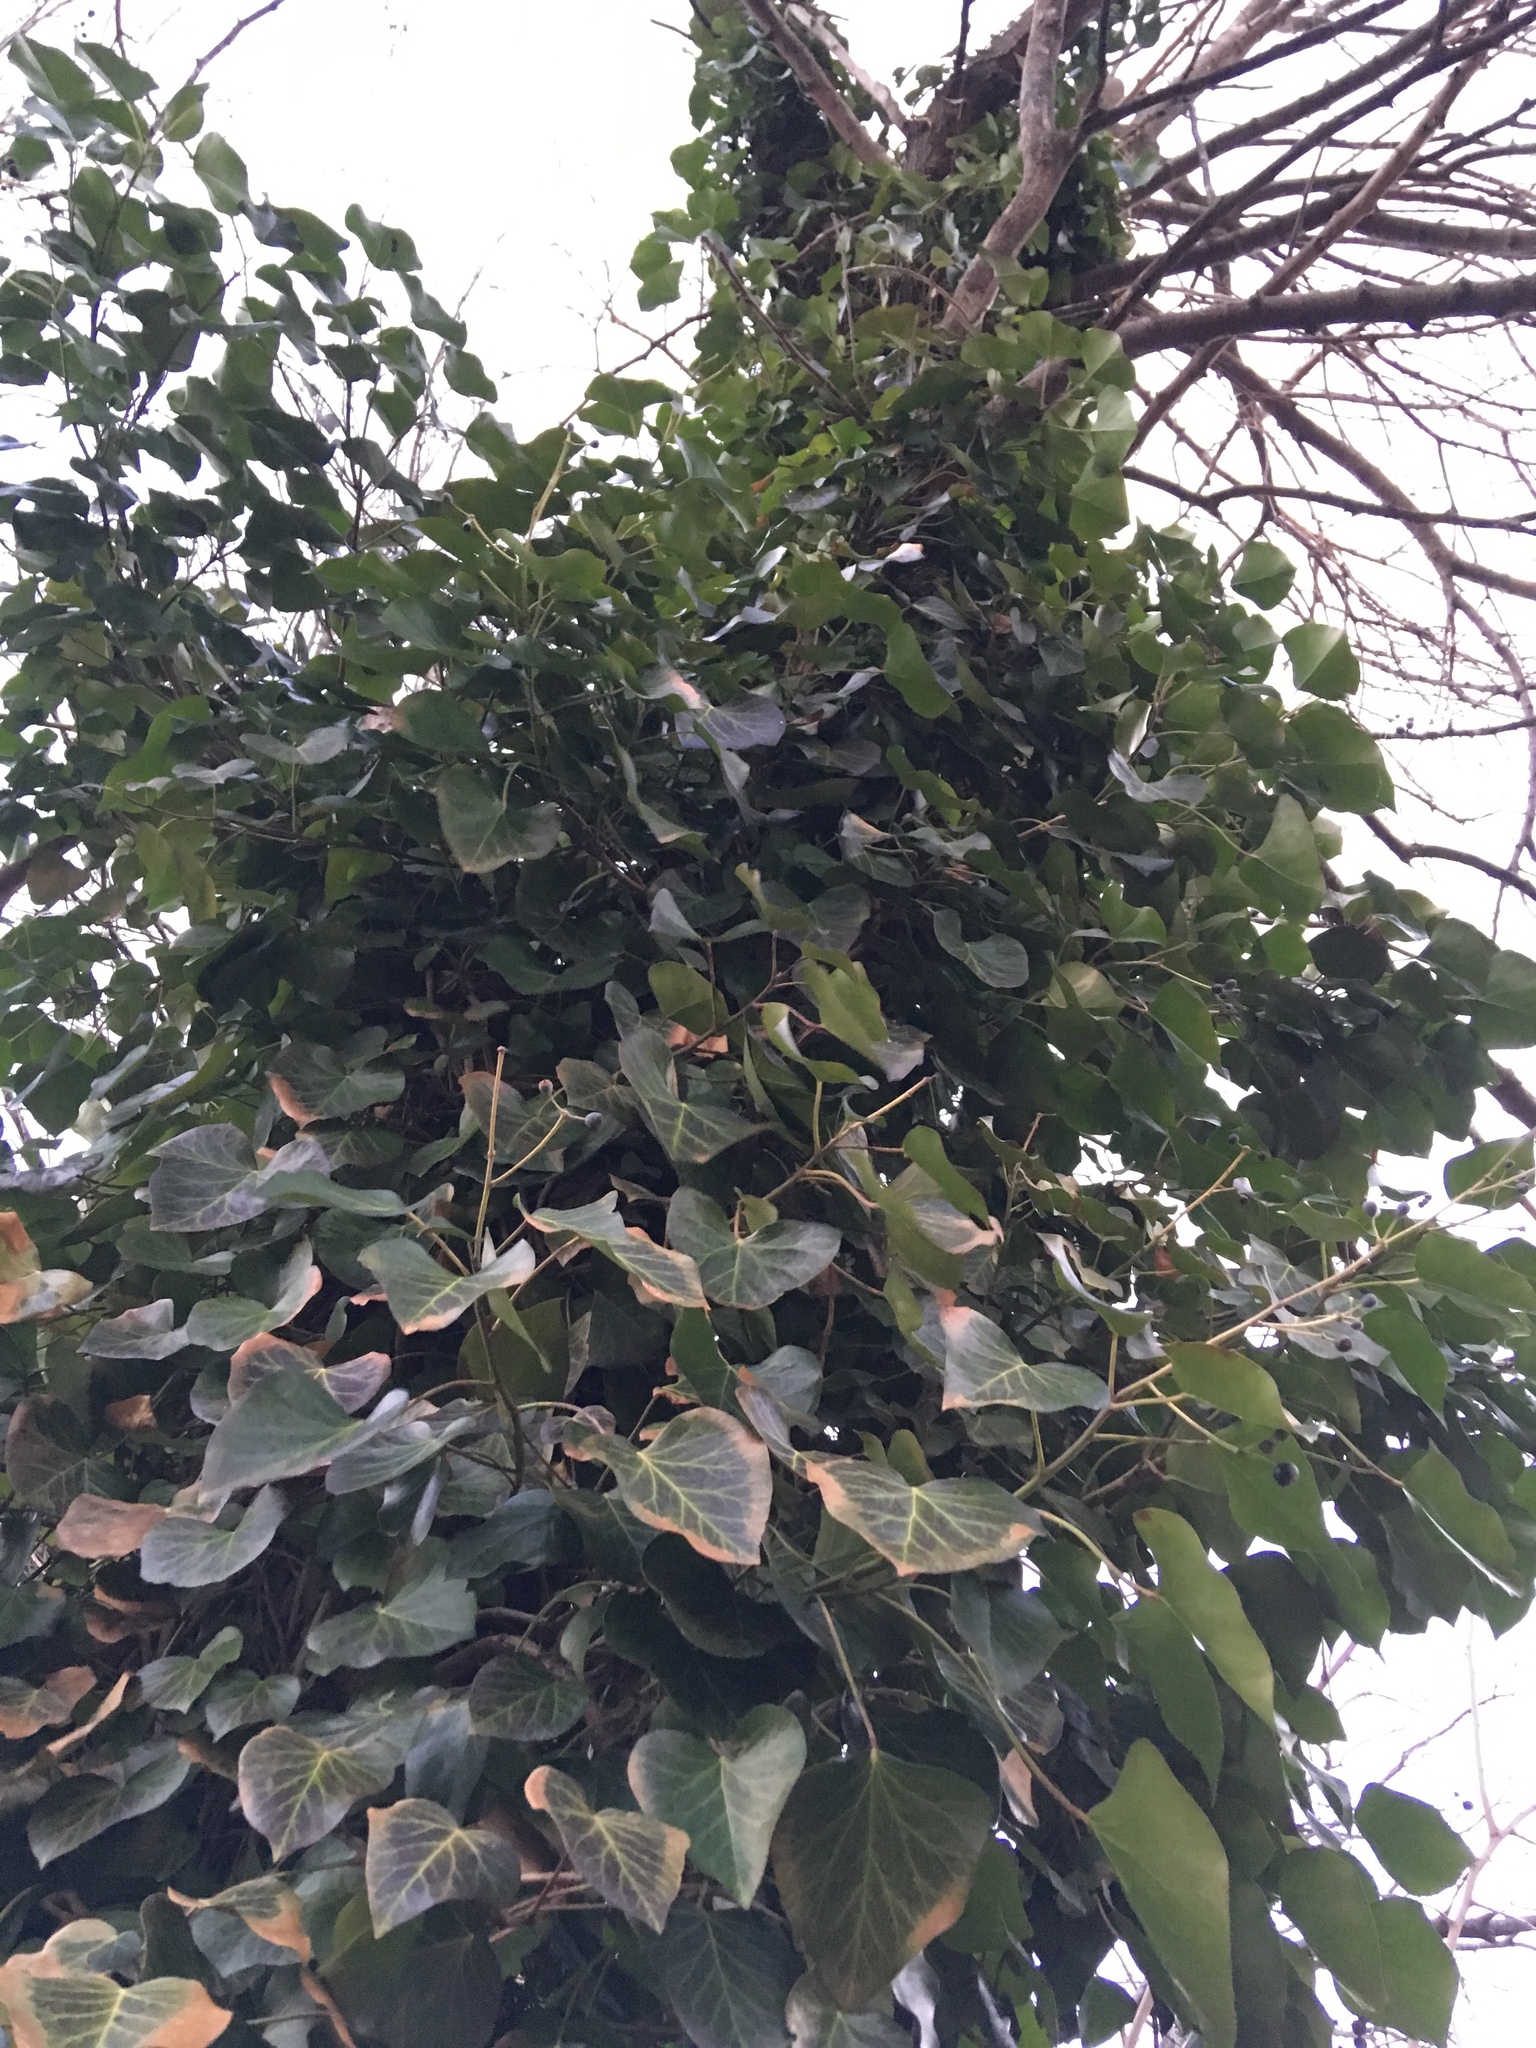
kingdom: Plantae
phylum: Tracheophyta
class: Magnoliopsida
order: Apiales
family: Araliaceae
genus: Hedera
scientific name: Hedera helix
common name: Ivy
